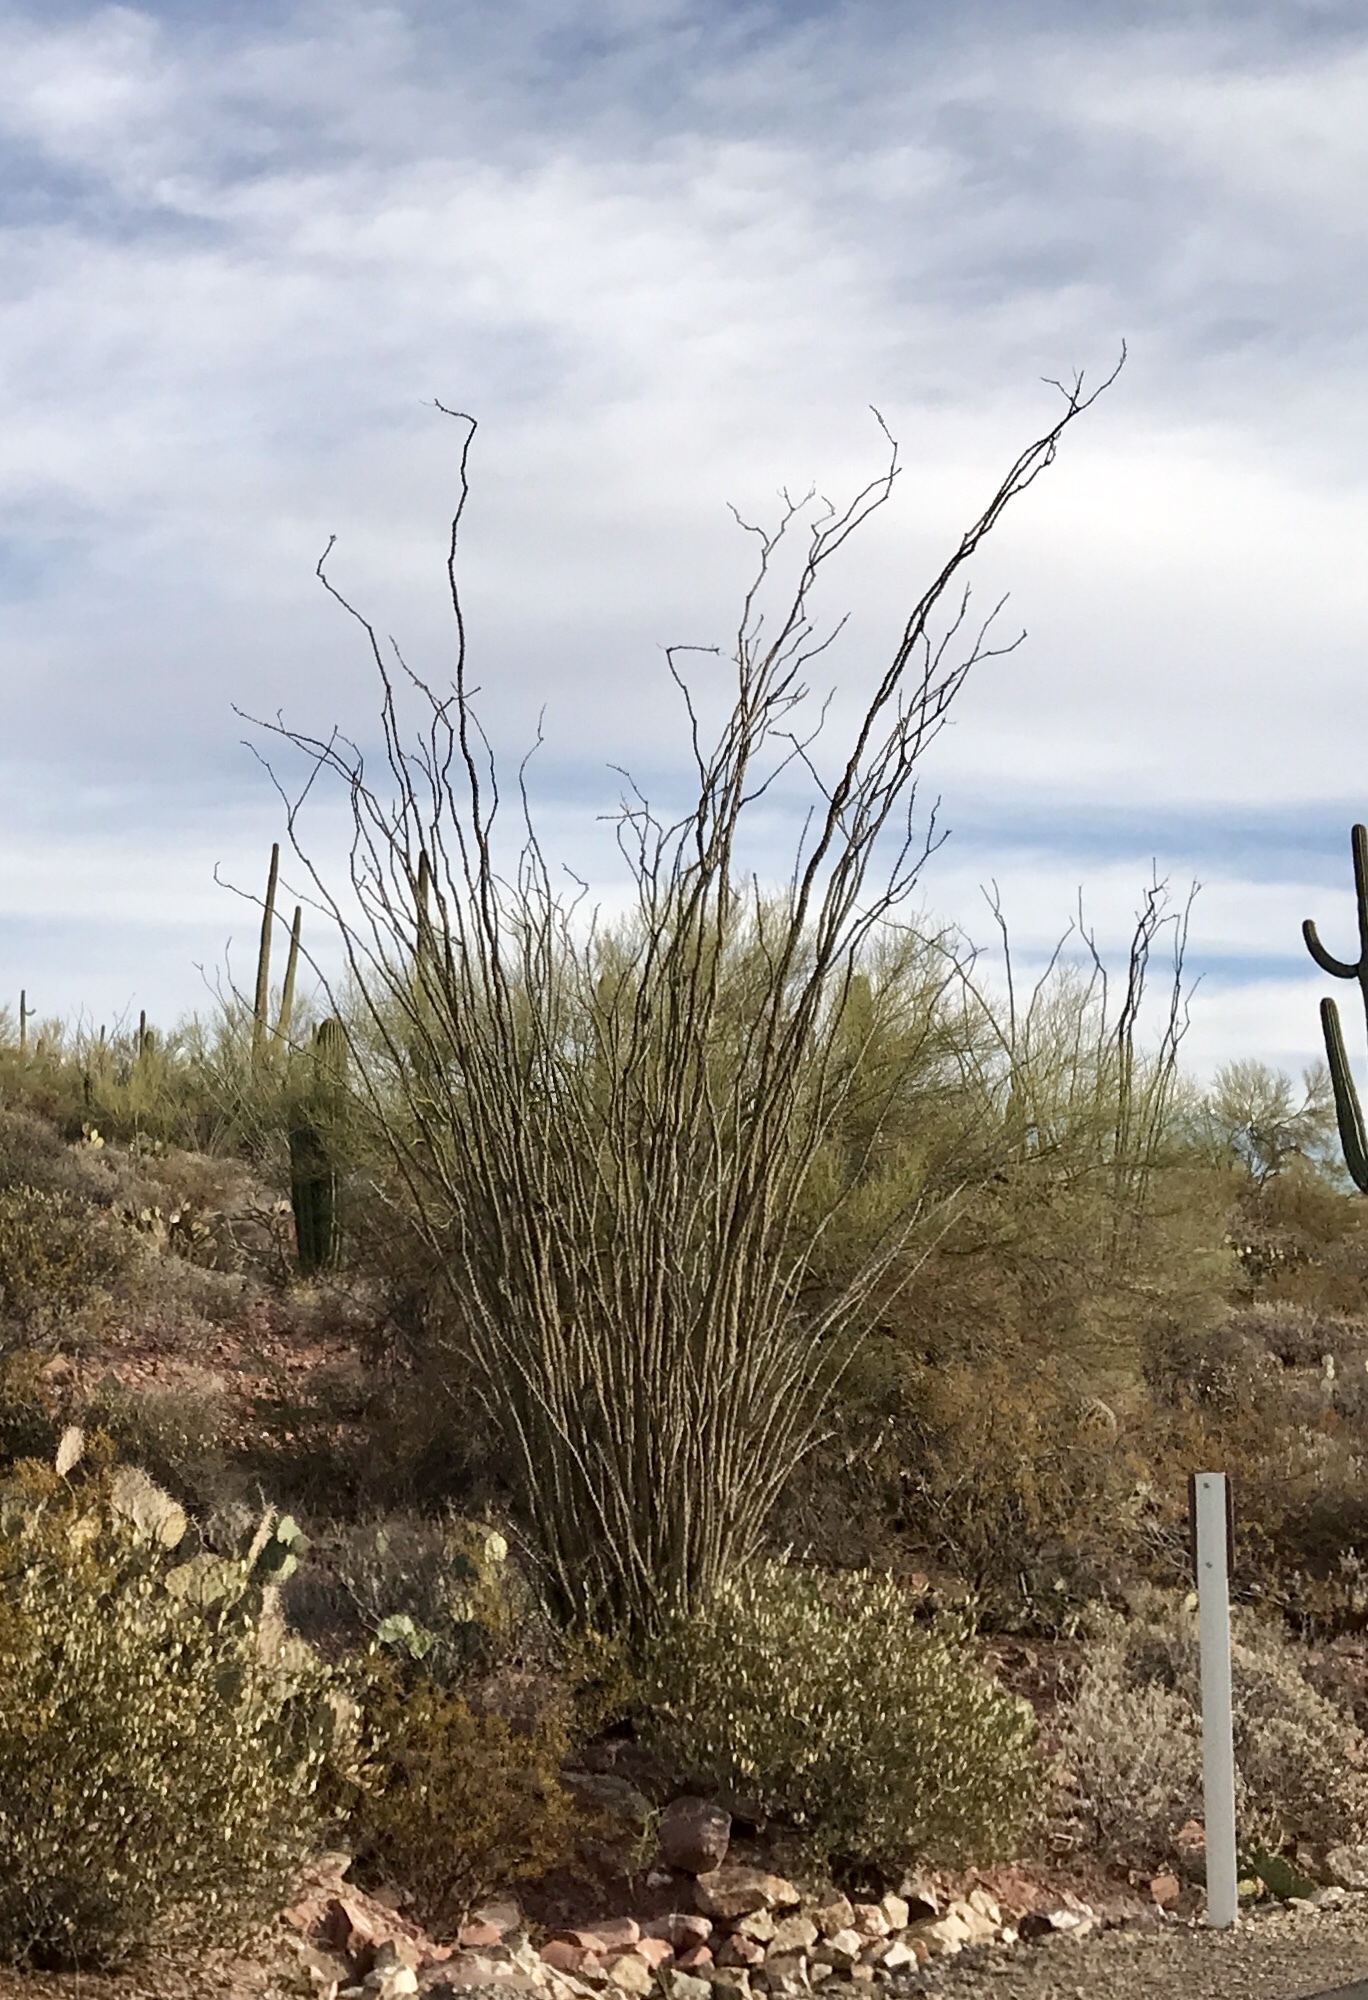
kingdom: Plantae
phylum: Tracheophyta
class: Magnoliopsida
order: Ericales
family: Fouquieriaceae
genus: Fouquieria
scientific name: Fouquieria splendens
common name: Vine-cactus
